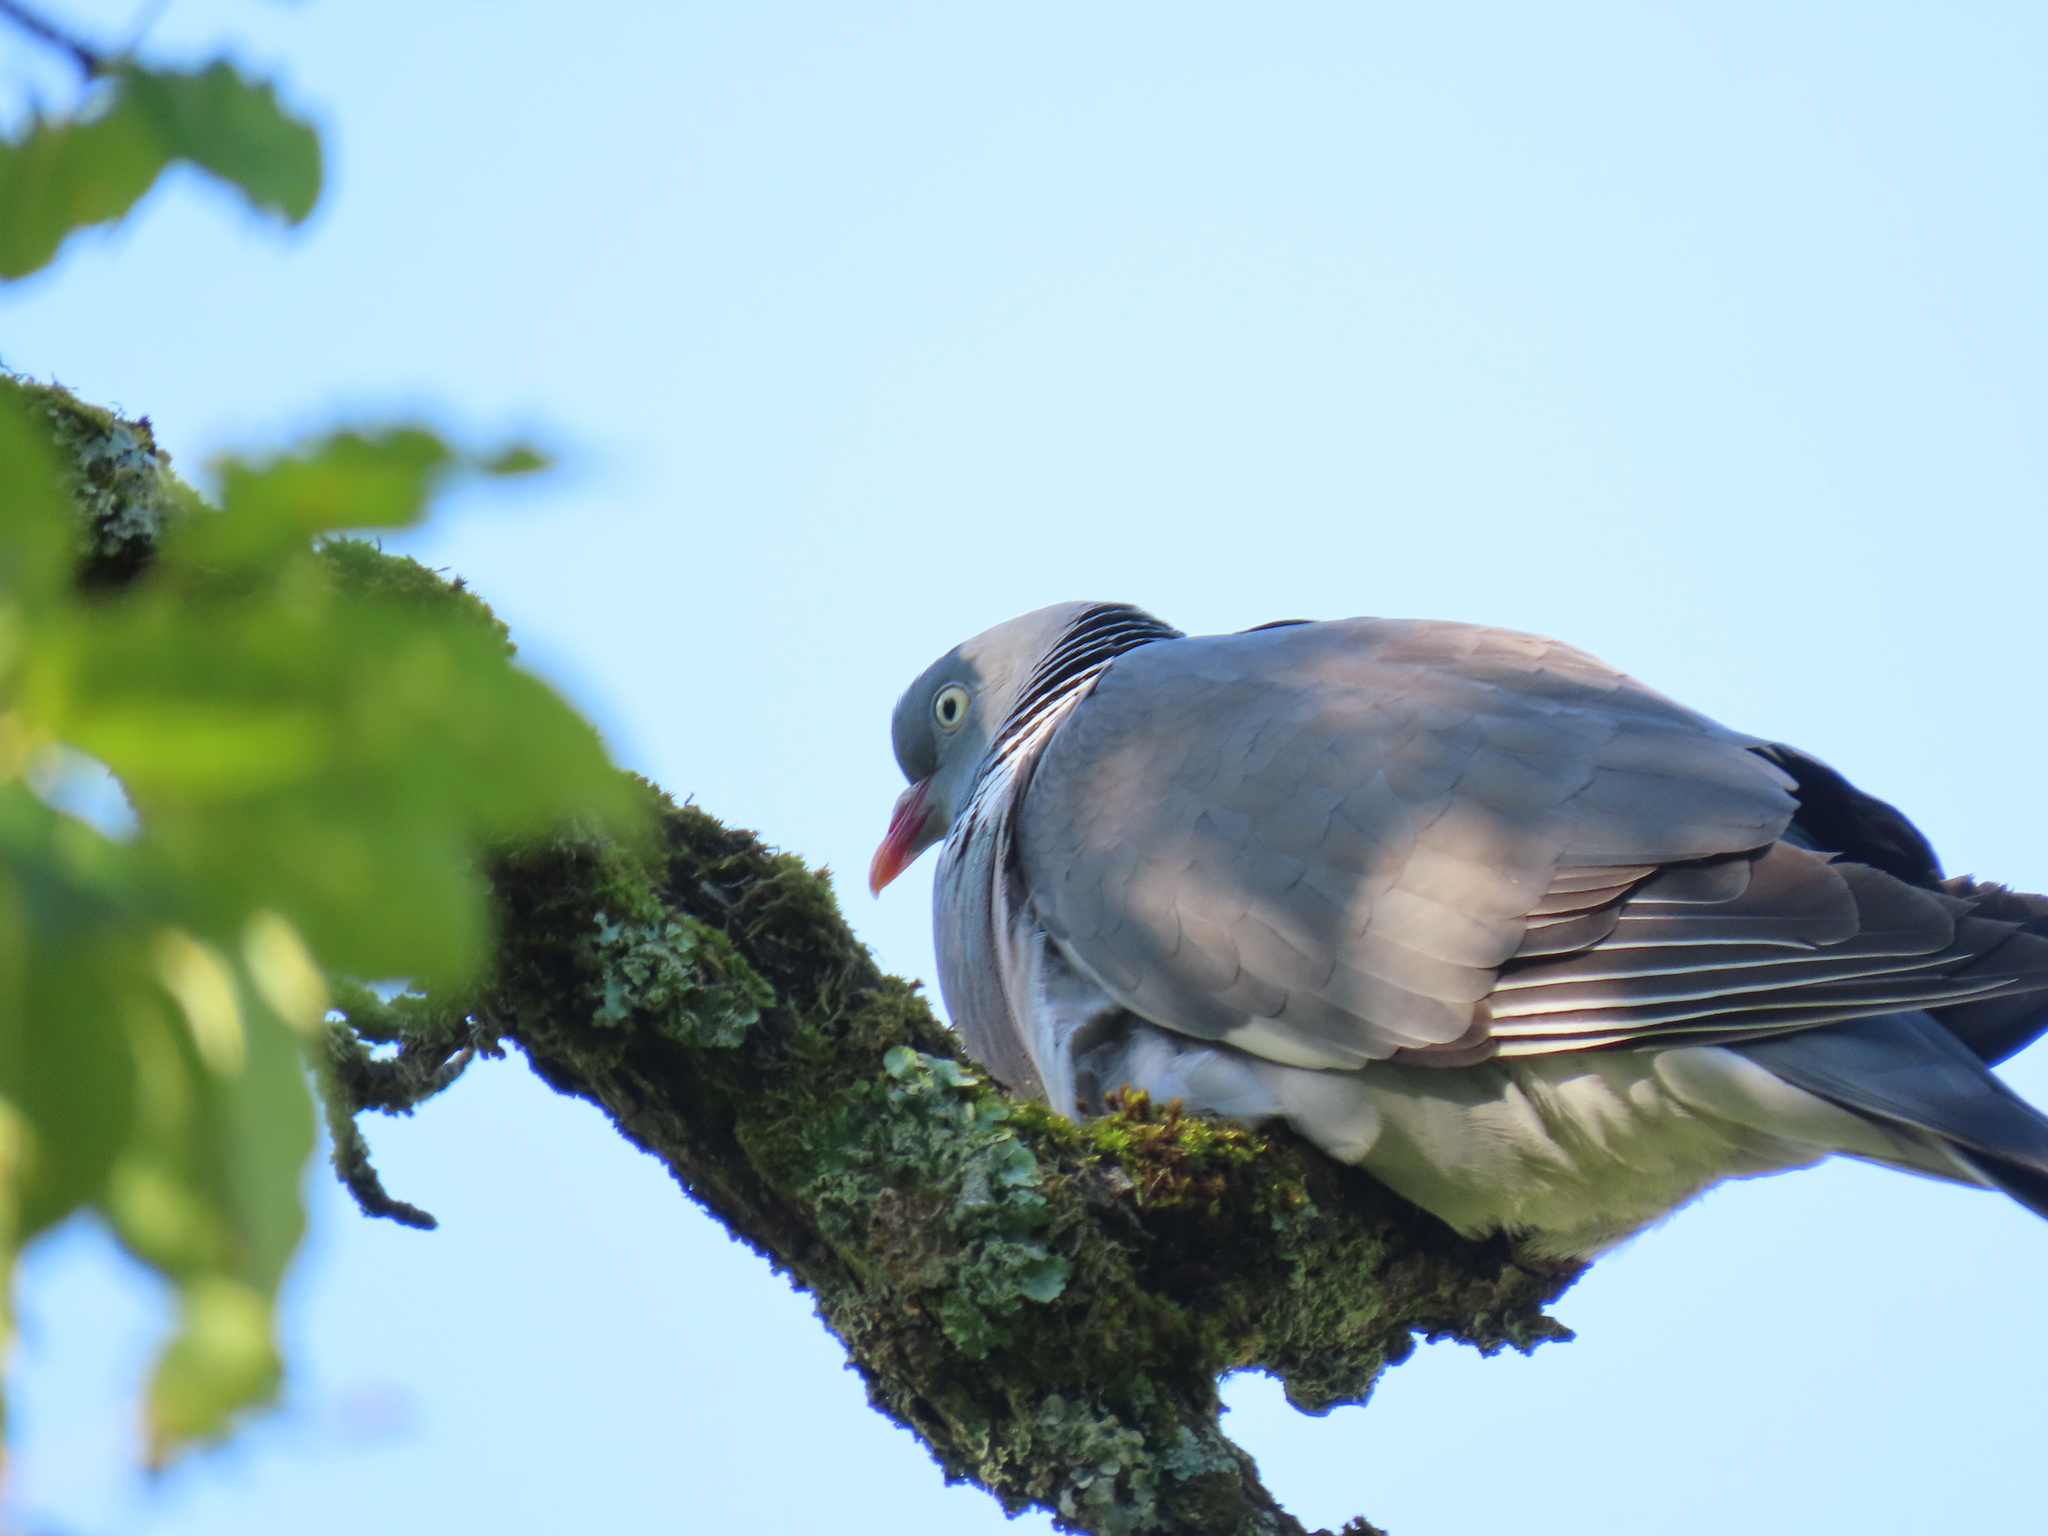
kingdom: Animalia
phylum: Chordata
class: Aves
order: Columbiformes
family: Columbidae
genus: Columba
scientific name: Columba palumbus
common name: Common wood pigeon
